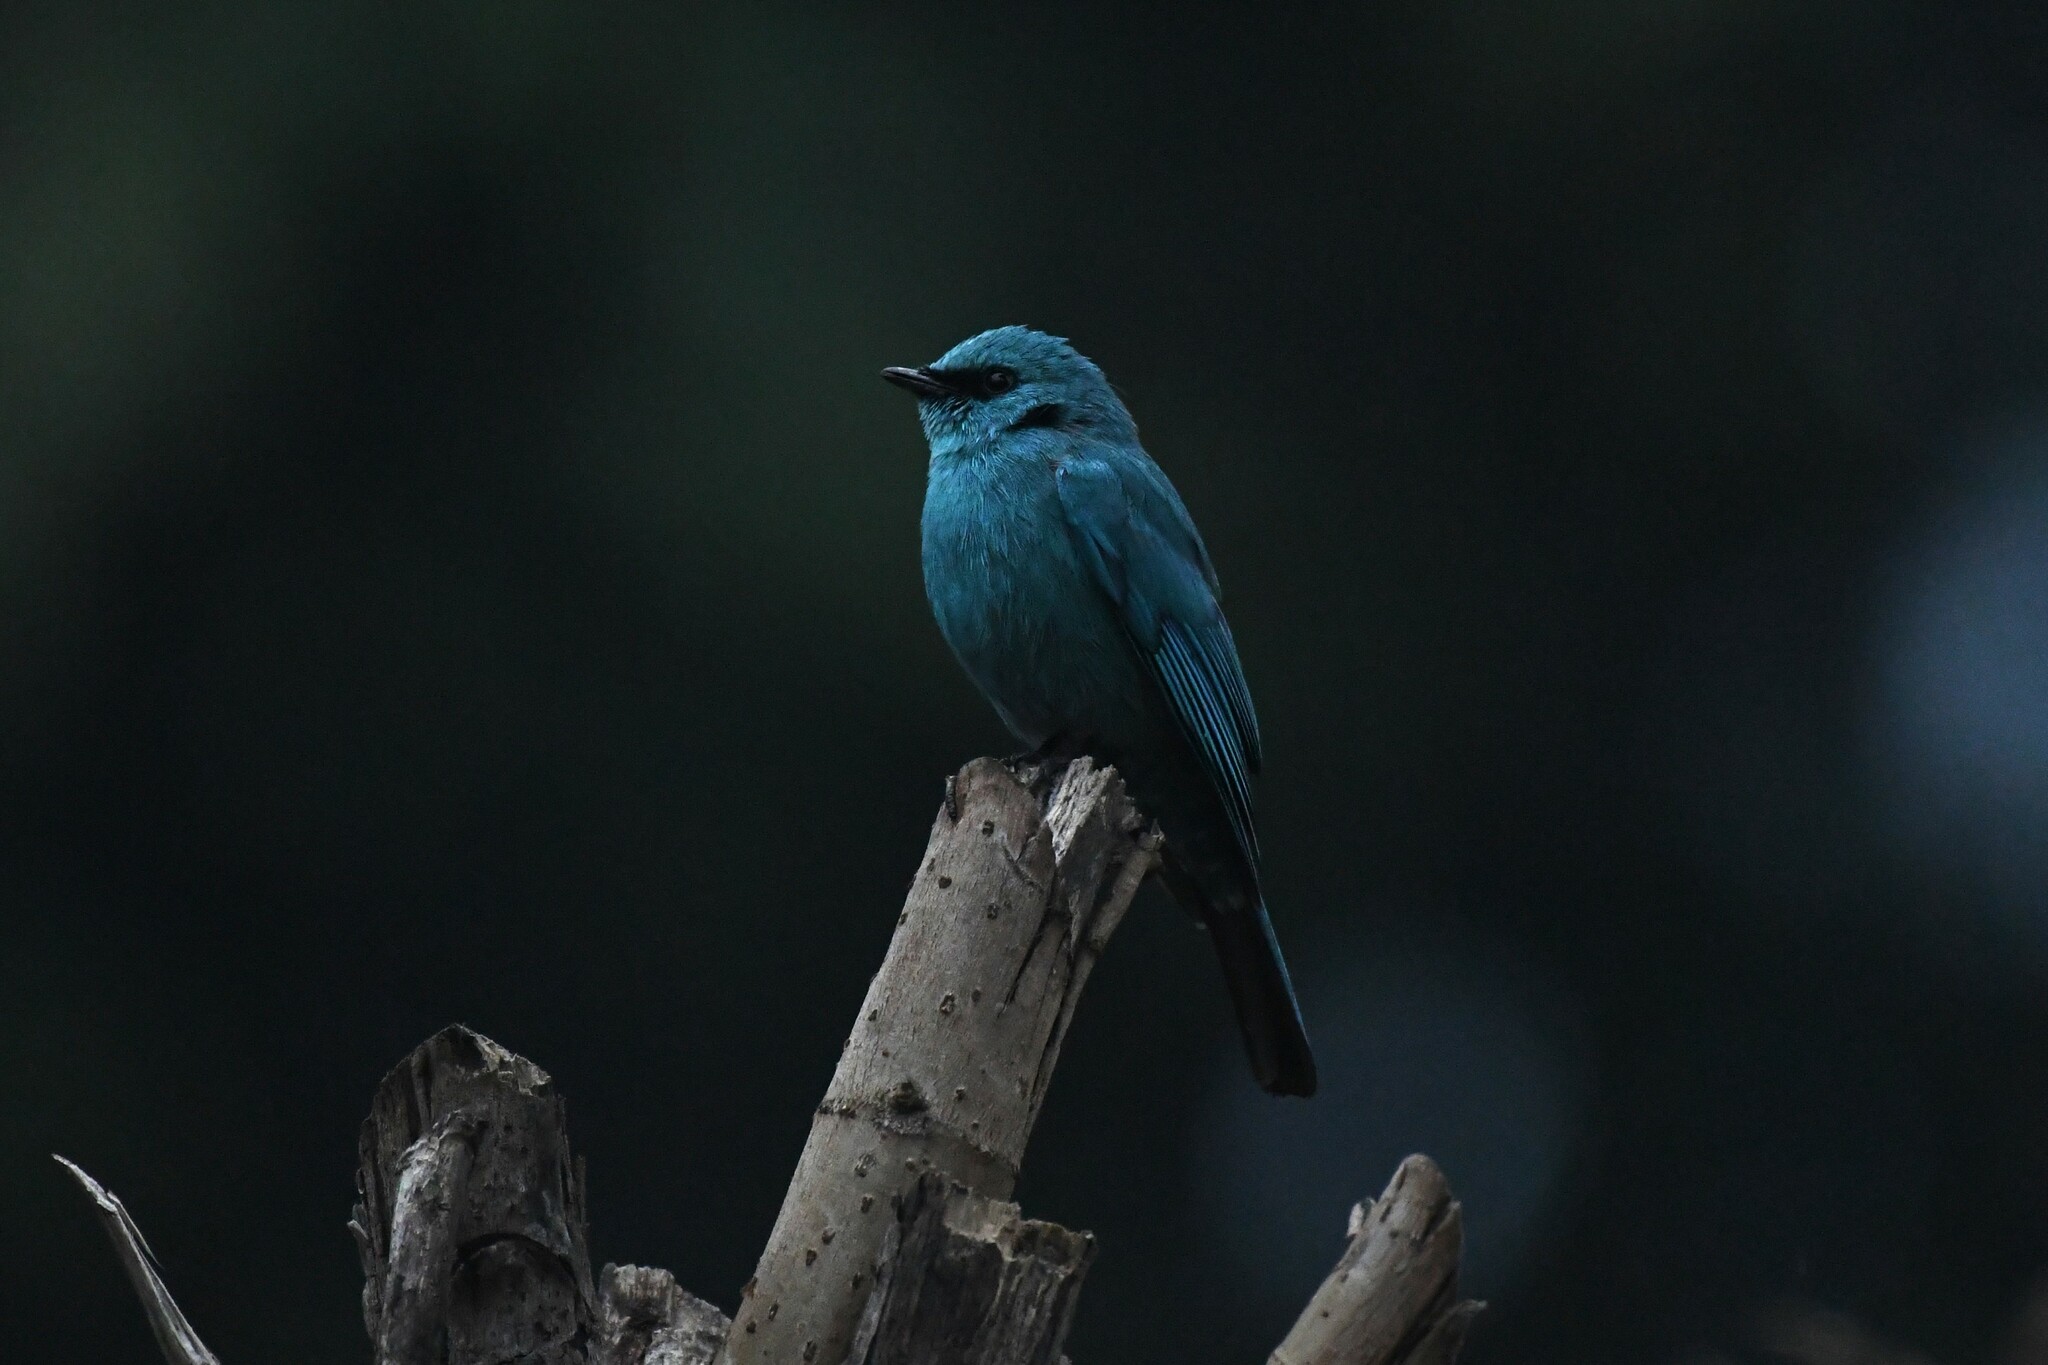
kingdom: Animalia
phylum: Chordata
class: Aves
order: Passeriformes
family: Muscicapidae
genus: Eumyias
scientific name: Eumyias thalassinus
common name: Verditer flycatcher
